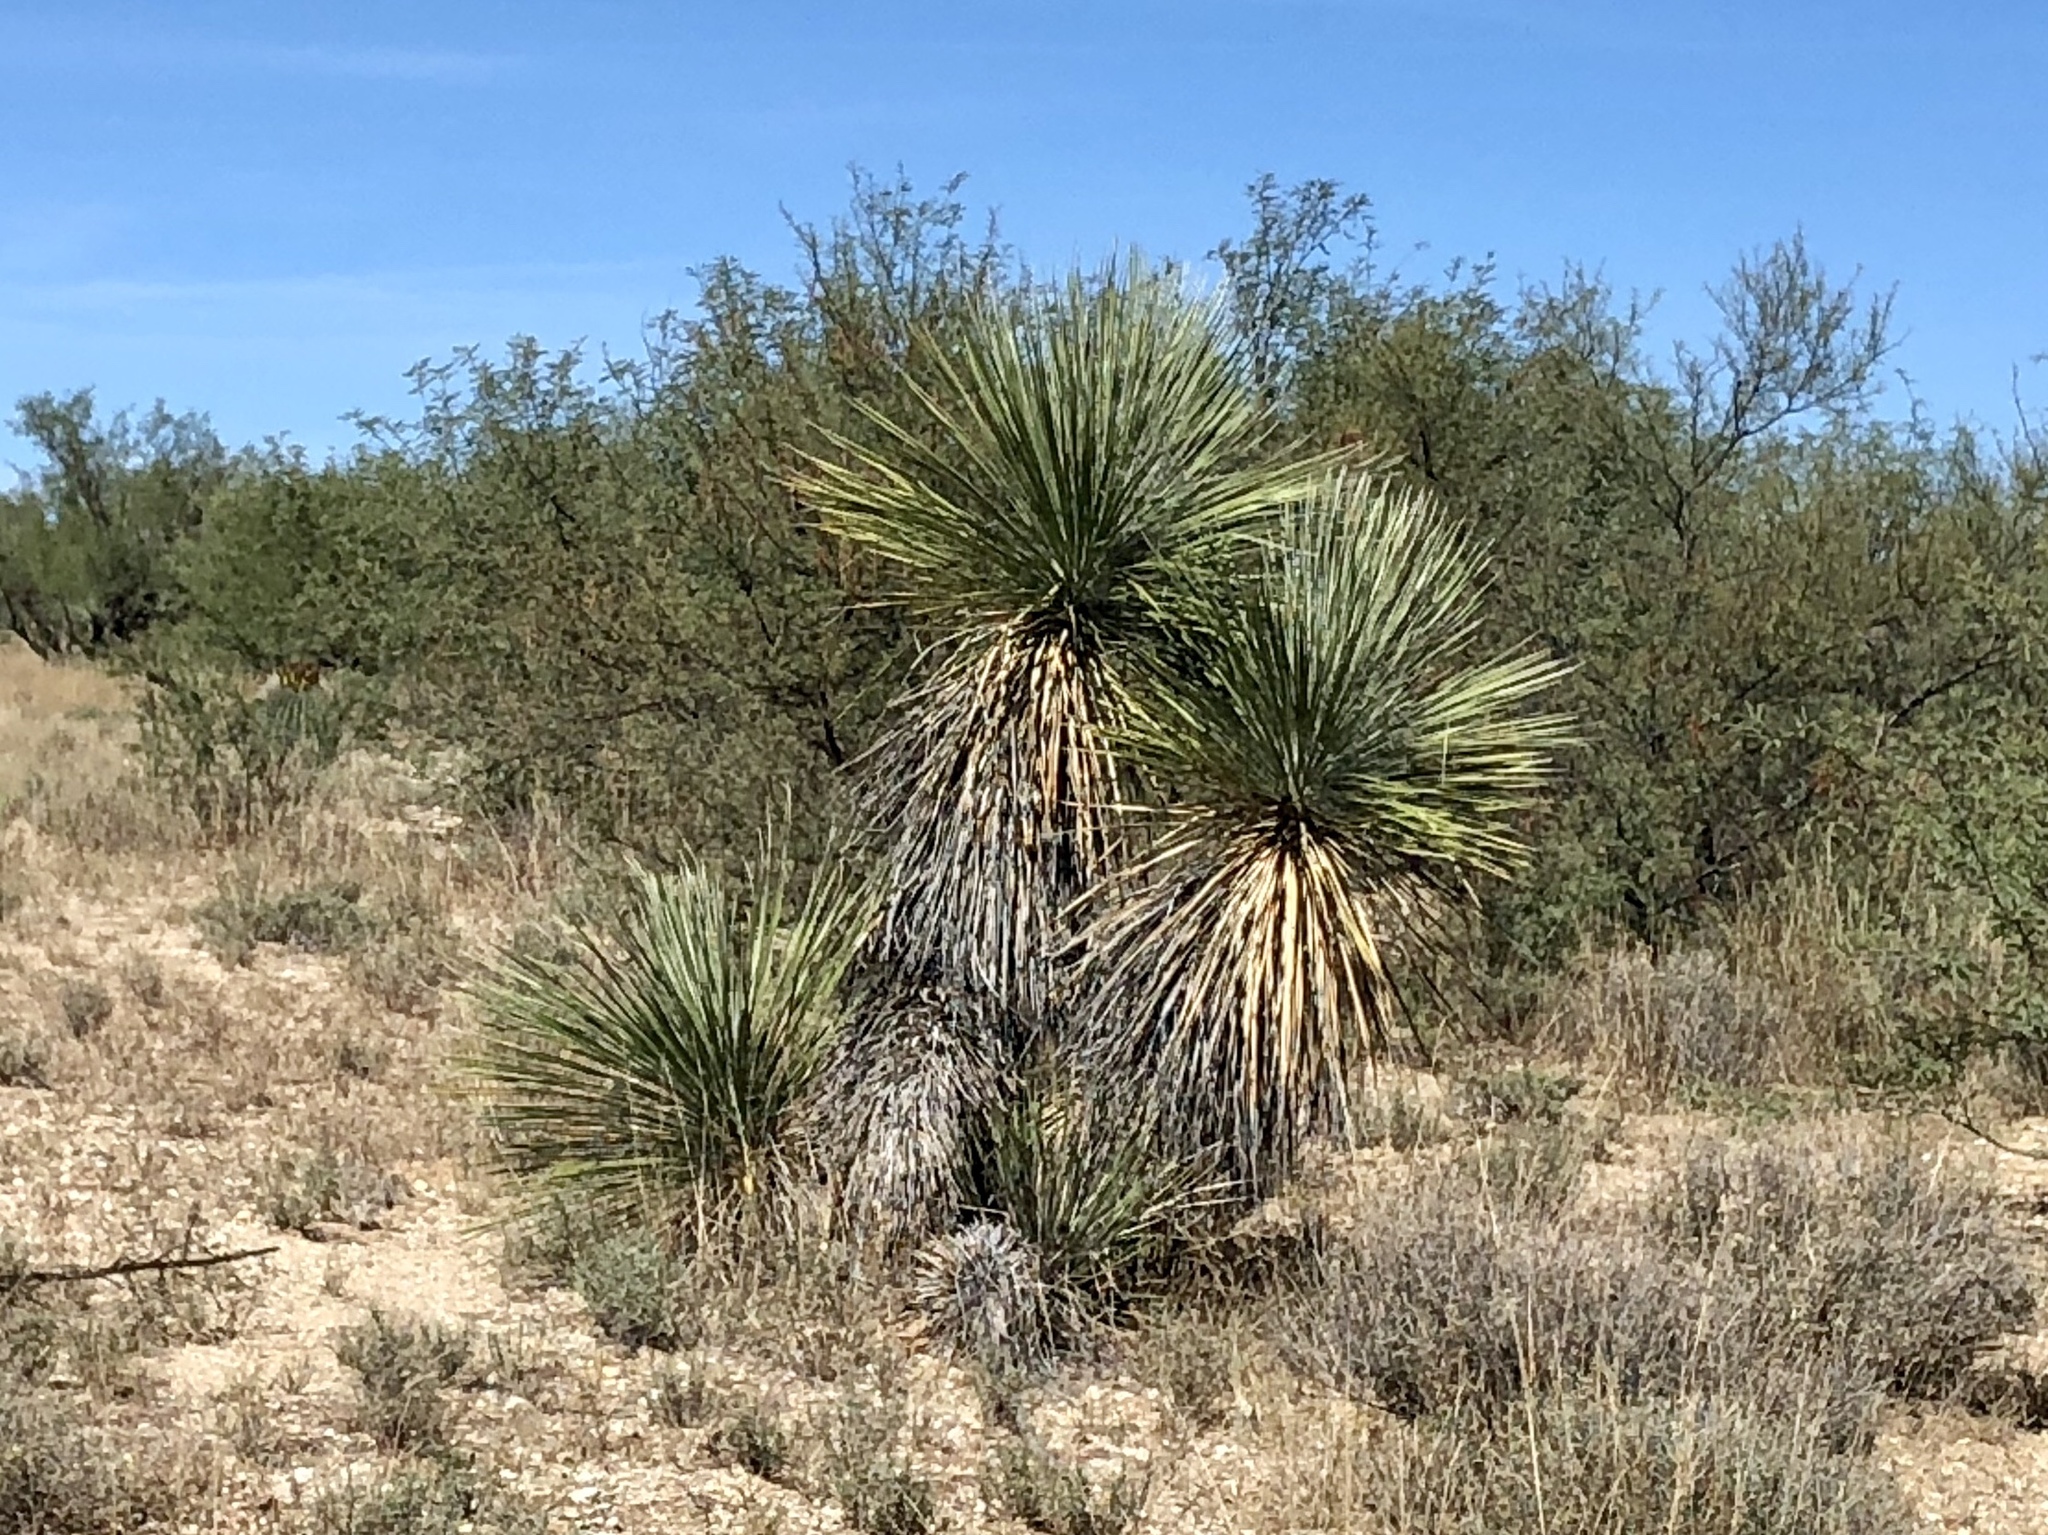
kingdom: Plantae
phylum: Tracheophyta
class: Liliopsida
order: Asparagales
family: Asparagaceae
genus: Yucca
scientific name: Yucca elata
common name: Palmella
